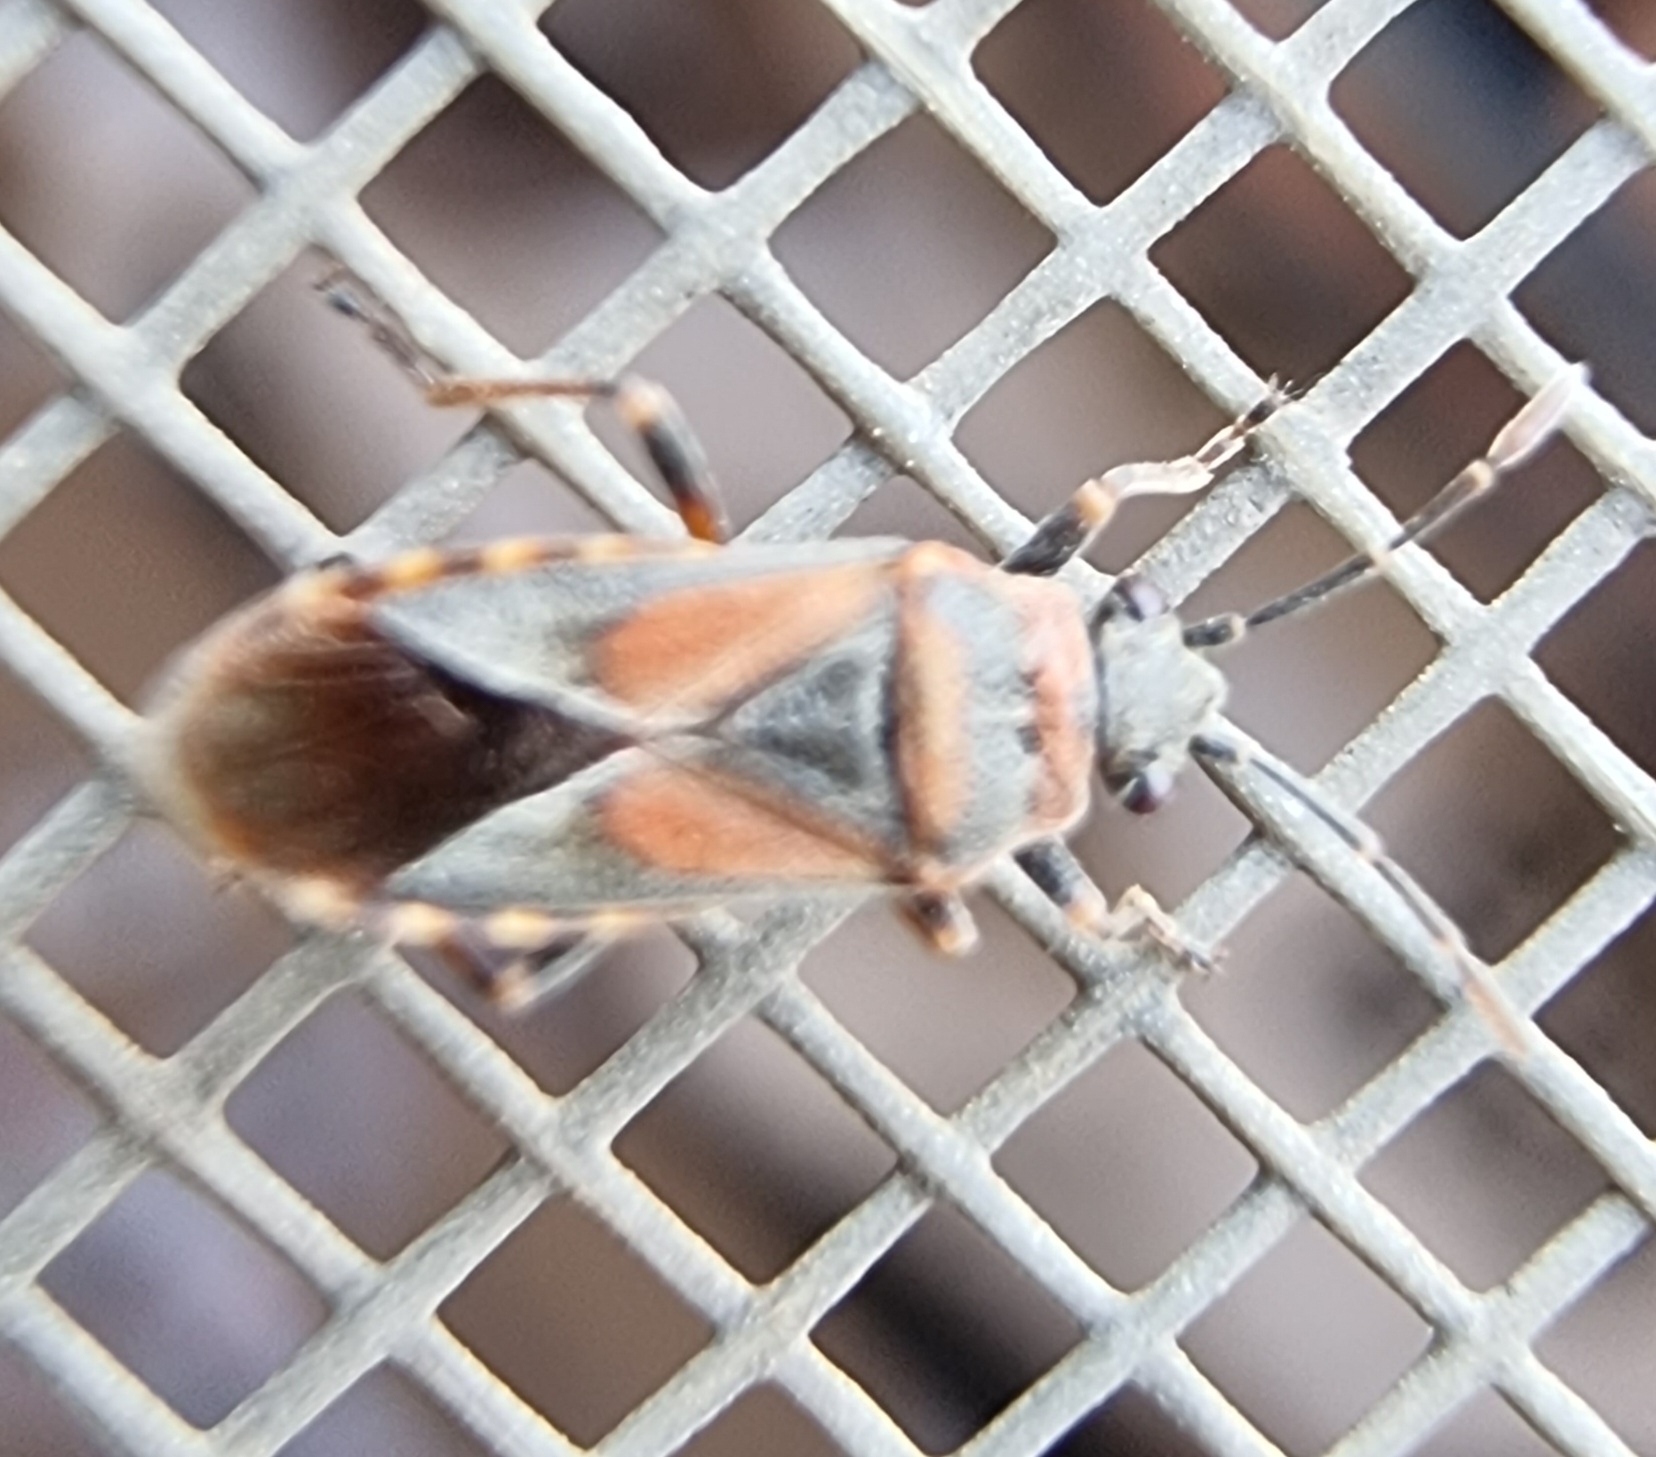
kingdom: Animalia
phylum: Arthropoda
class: Insecta
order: Hemiptera
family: Lygaeidae
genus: Arocatus
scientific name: Arocatus melanocephalus
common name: Lygaeid bug
